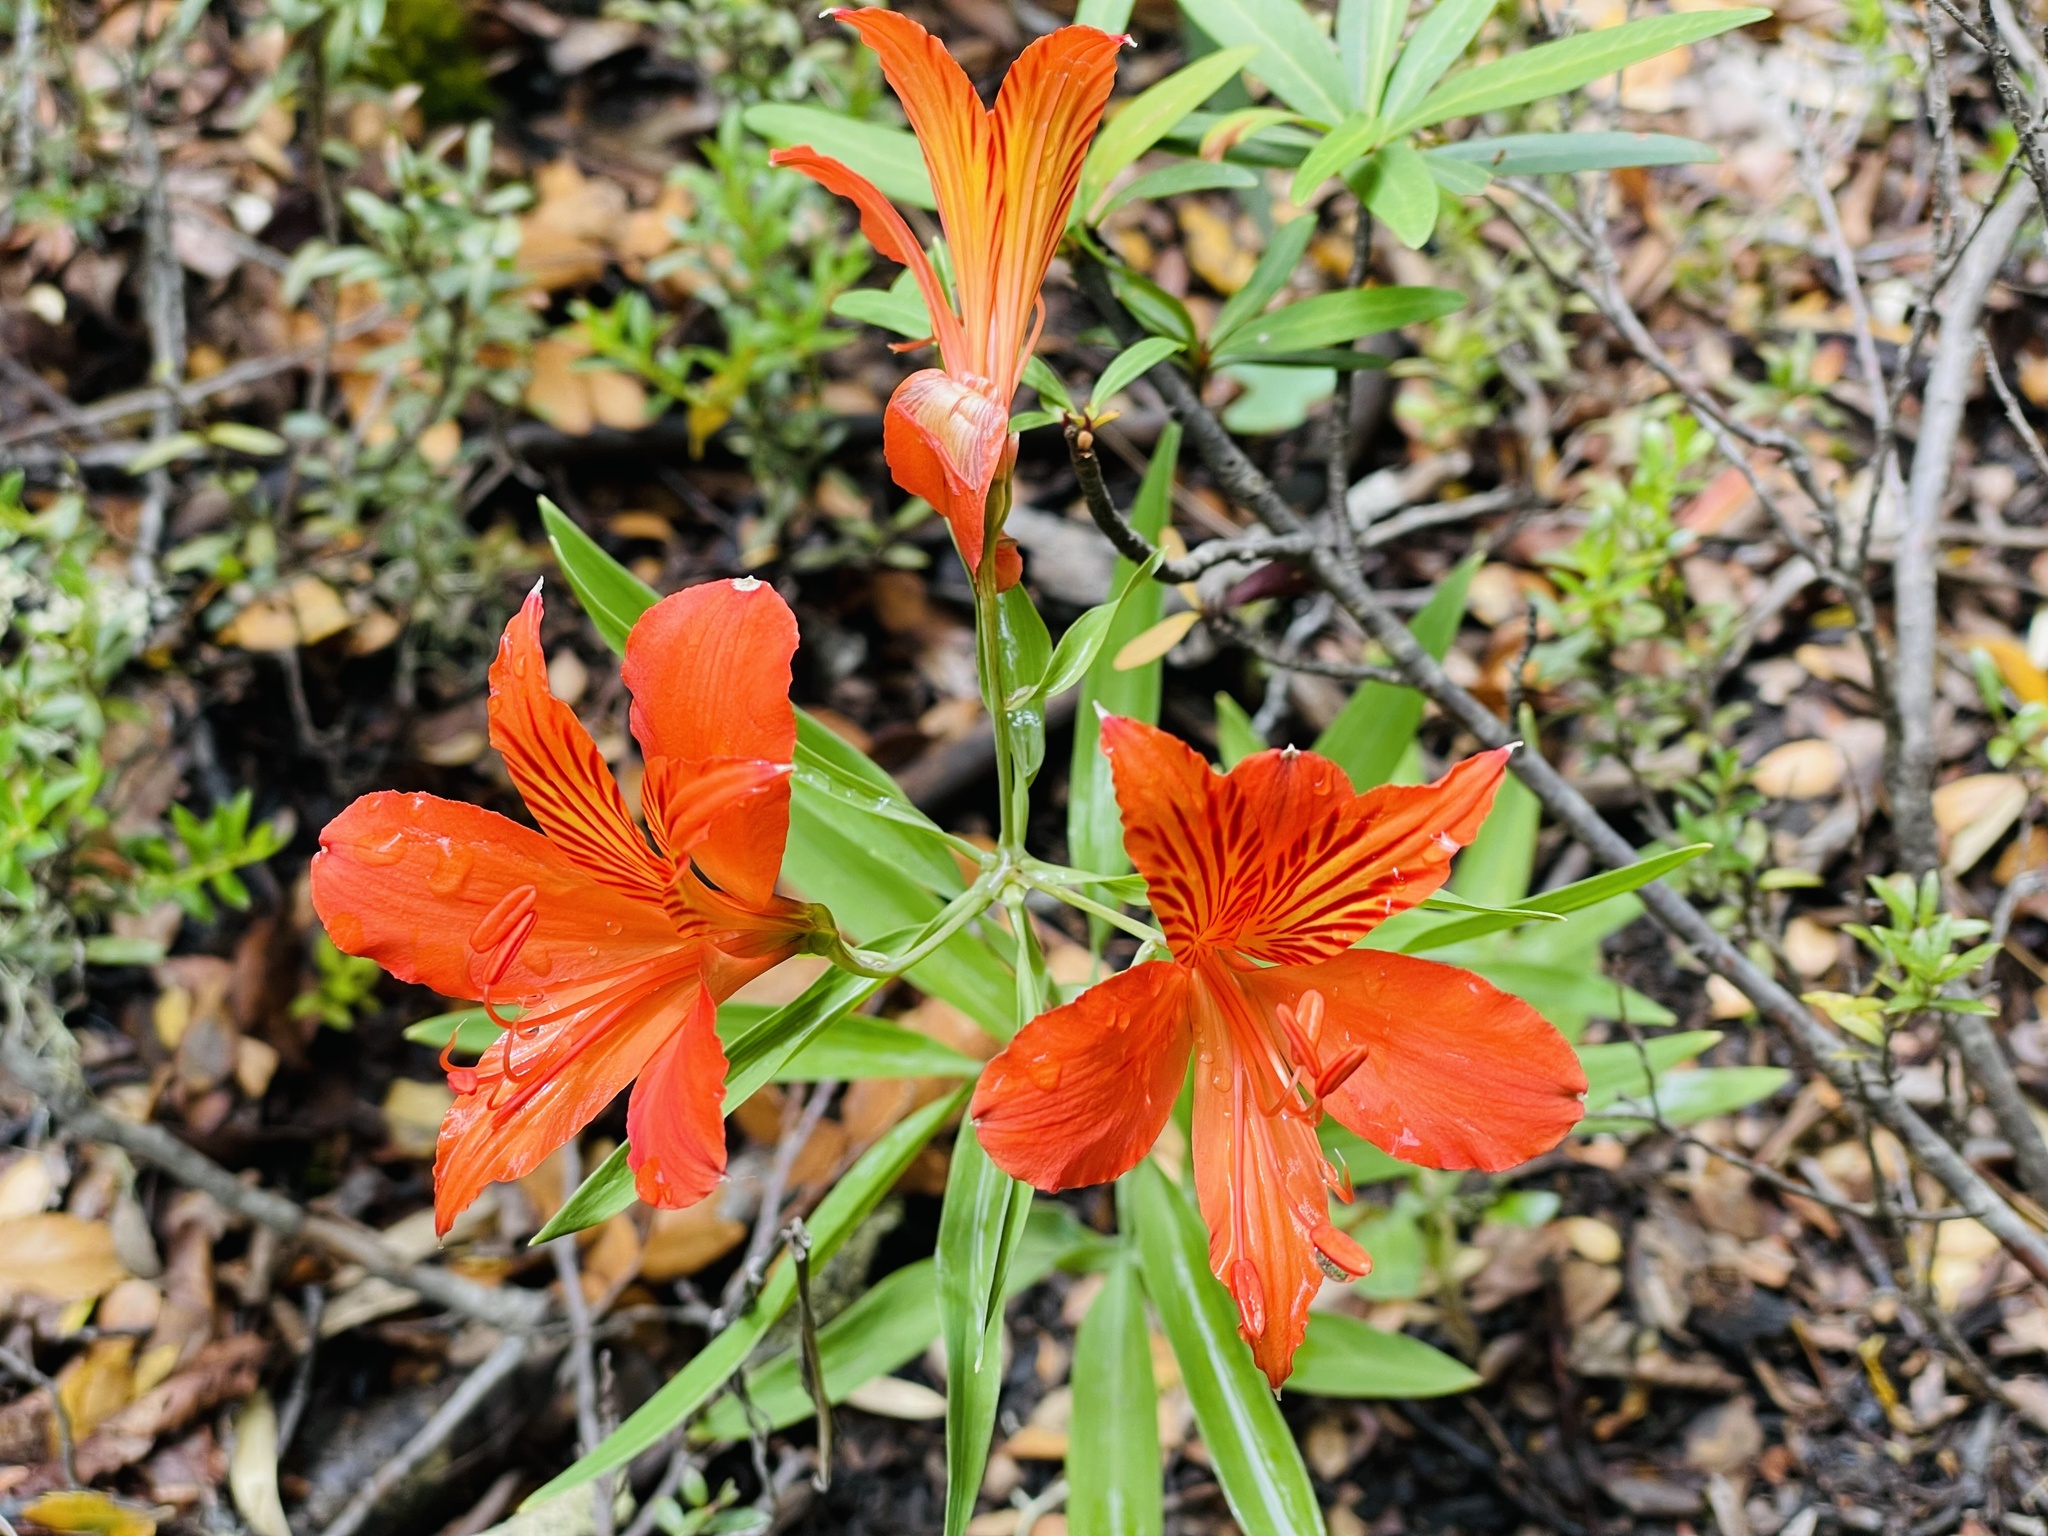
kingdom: Plantae
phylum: Tracheophyta
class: Liliopsida
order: Liliales
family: Alstroemeriaceae
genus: Alstroemeria
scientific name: Alstroemeria aurea
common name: Peruvian lily
